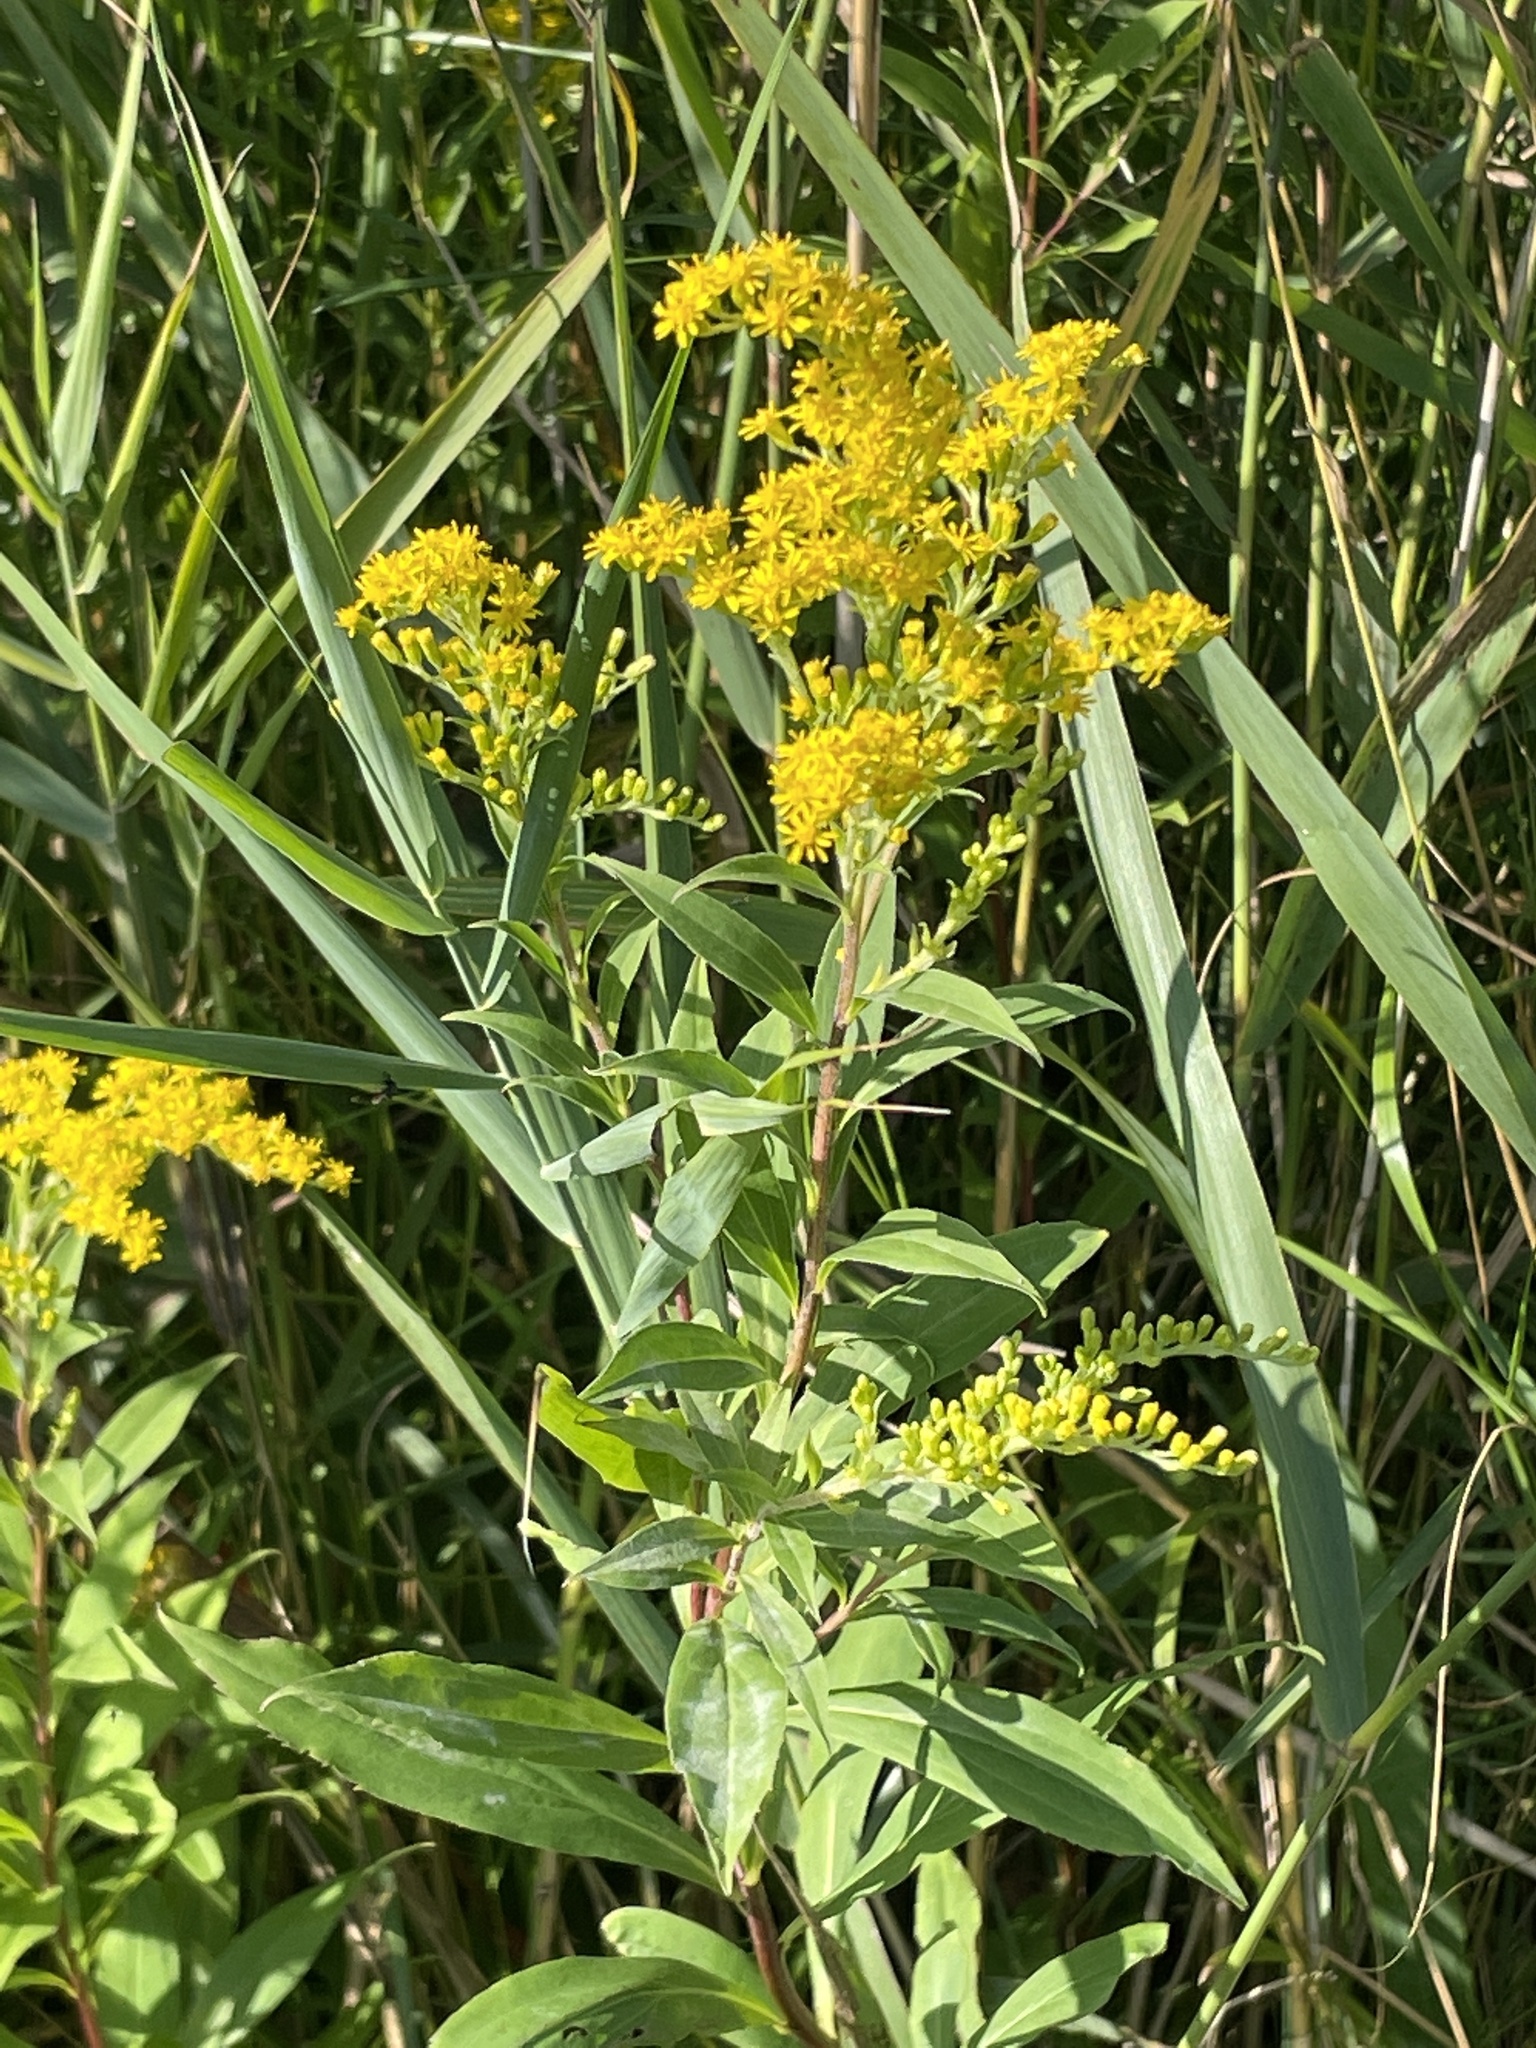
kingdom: Plantae
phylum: Tracheophyta
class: Magnoliopsida
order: Asterales
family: Asteraceae
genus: Solidago
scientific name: Solidago gigantea
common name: Giant goldenrod
